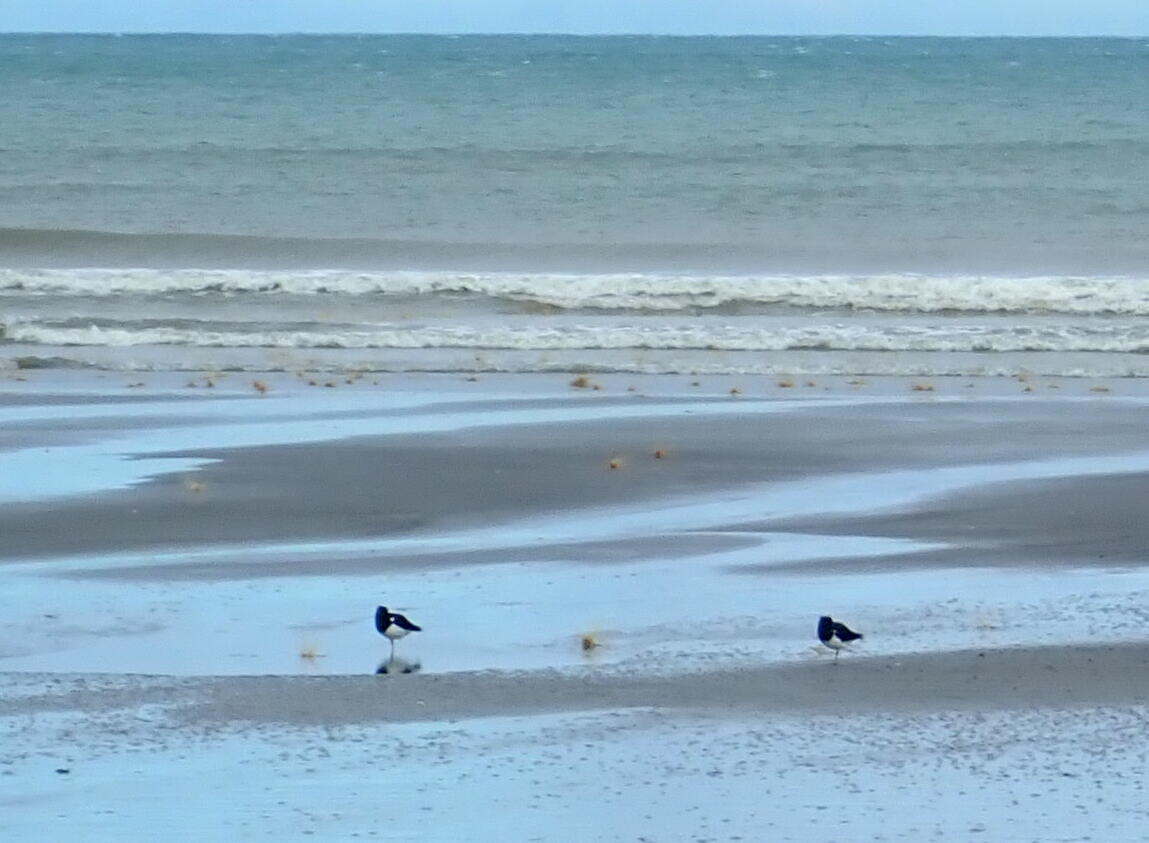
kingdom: Animalia
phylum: Chordata
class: Aves
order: Charadriiformes
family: Haematopodidae
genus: Haematopus
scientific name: Haematopus finschi
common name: South island oystercatcher
